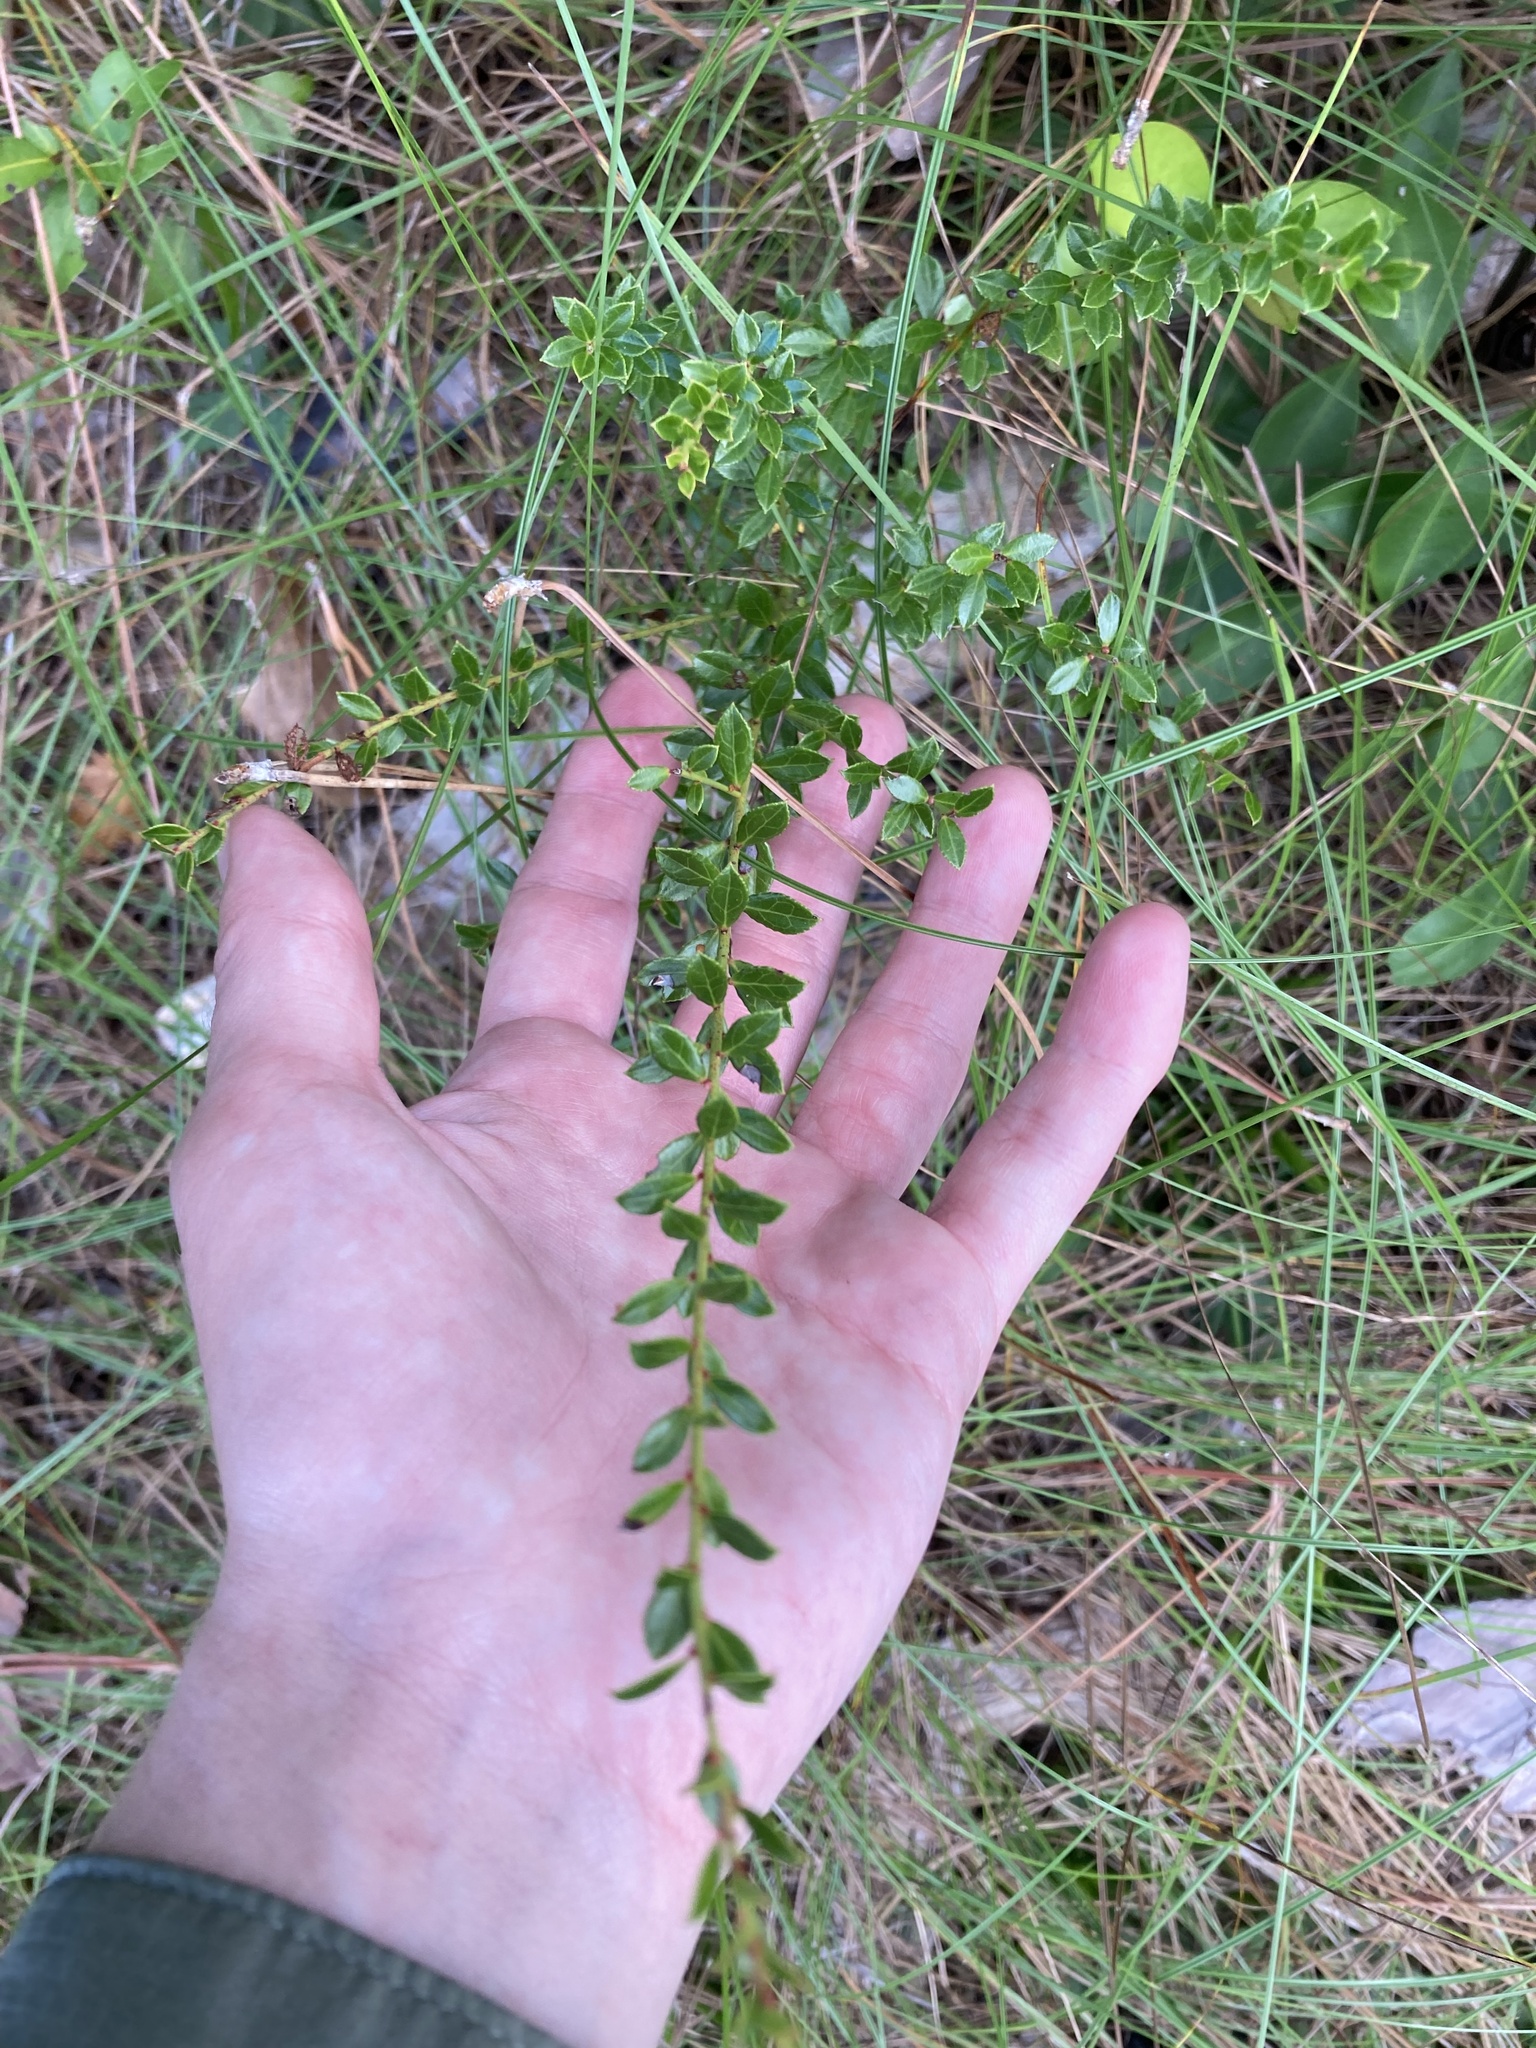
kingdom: Plantae
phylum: Tracheophyta
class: Magnoliopsida
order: Ericales
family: Ericaceae
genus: Vaccinium
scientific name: Vaccinium myrsinites
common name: Evergreen blueberry
